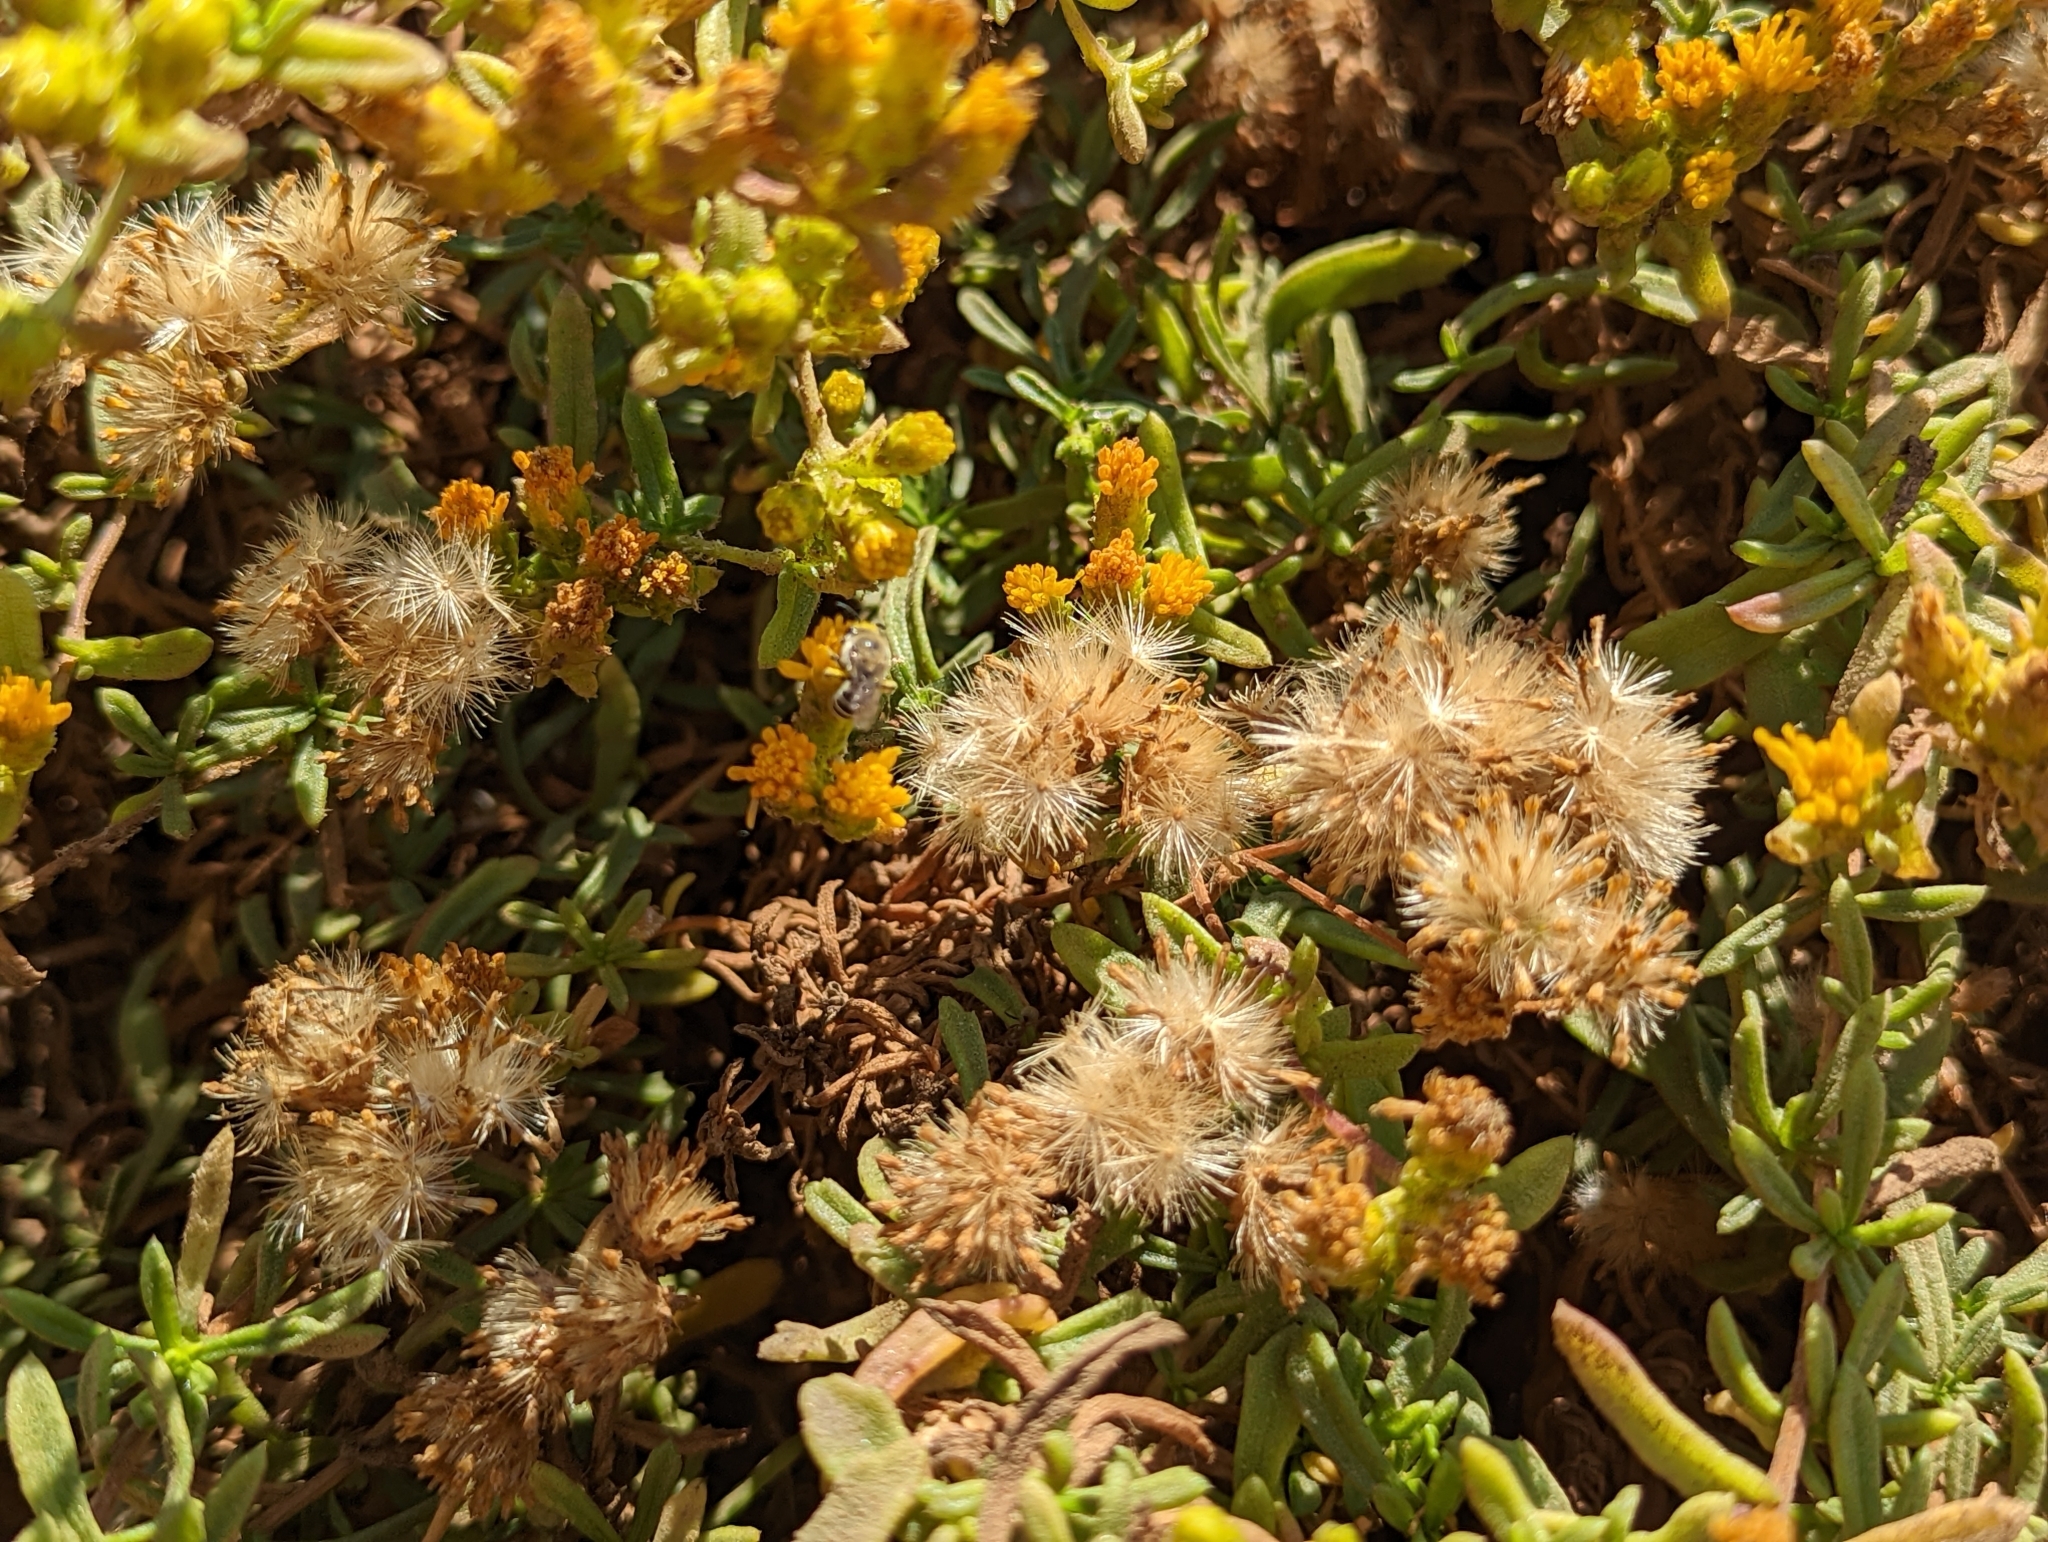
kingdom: Plantae
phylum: Tracheophyta
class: Magnoliopsida
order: Asterales
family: Asteraceae
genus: Isocoma
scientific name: Isocoma menziesii
